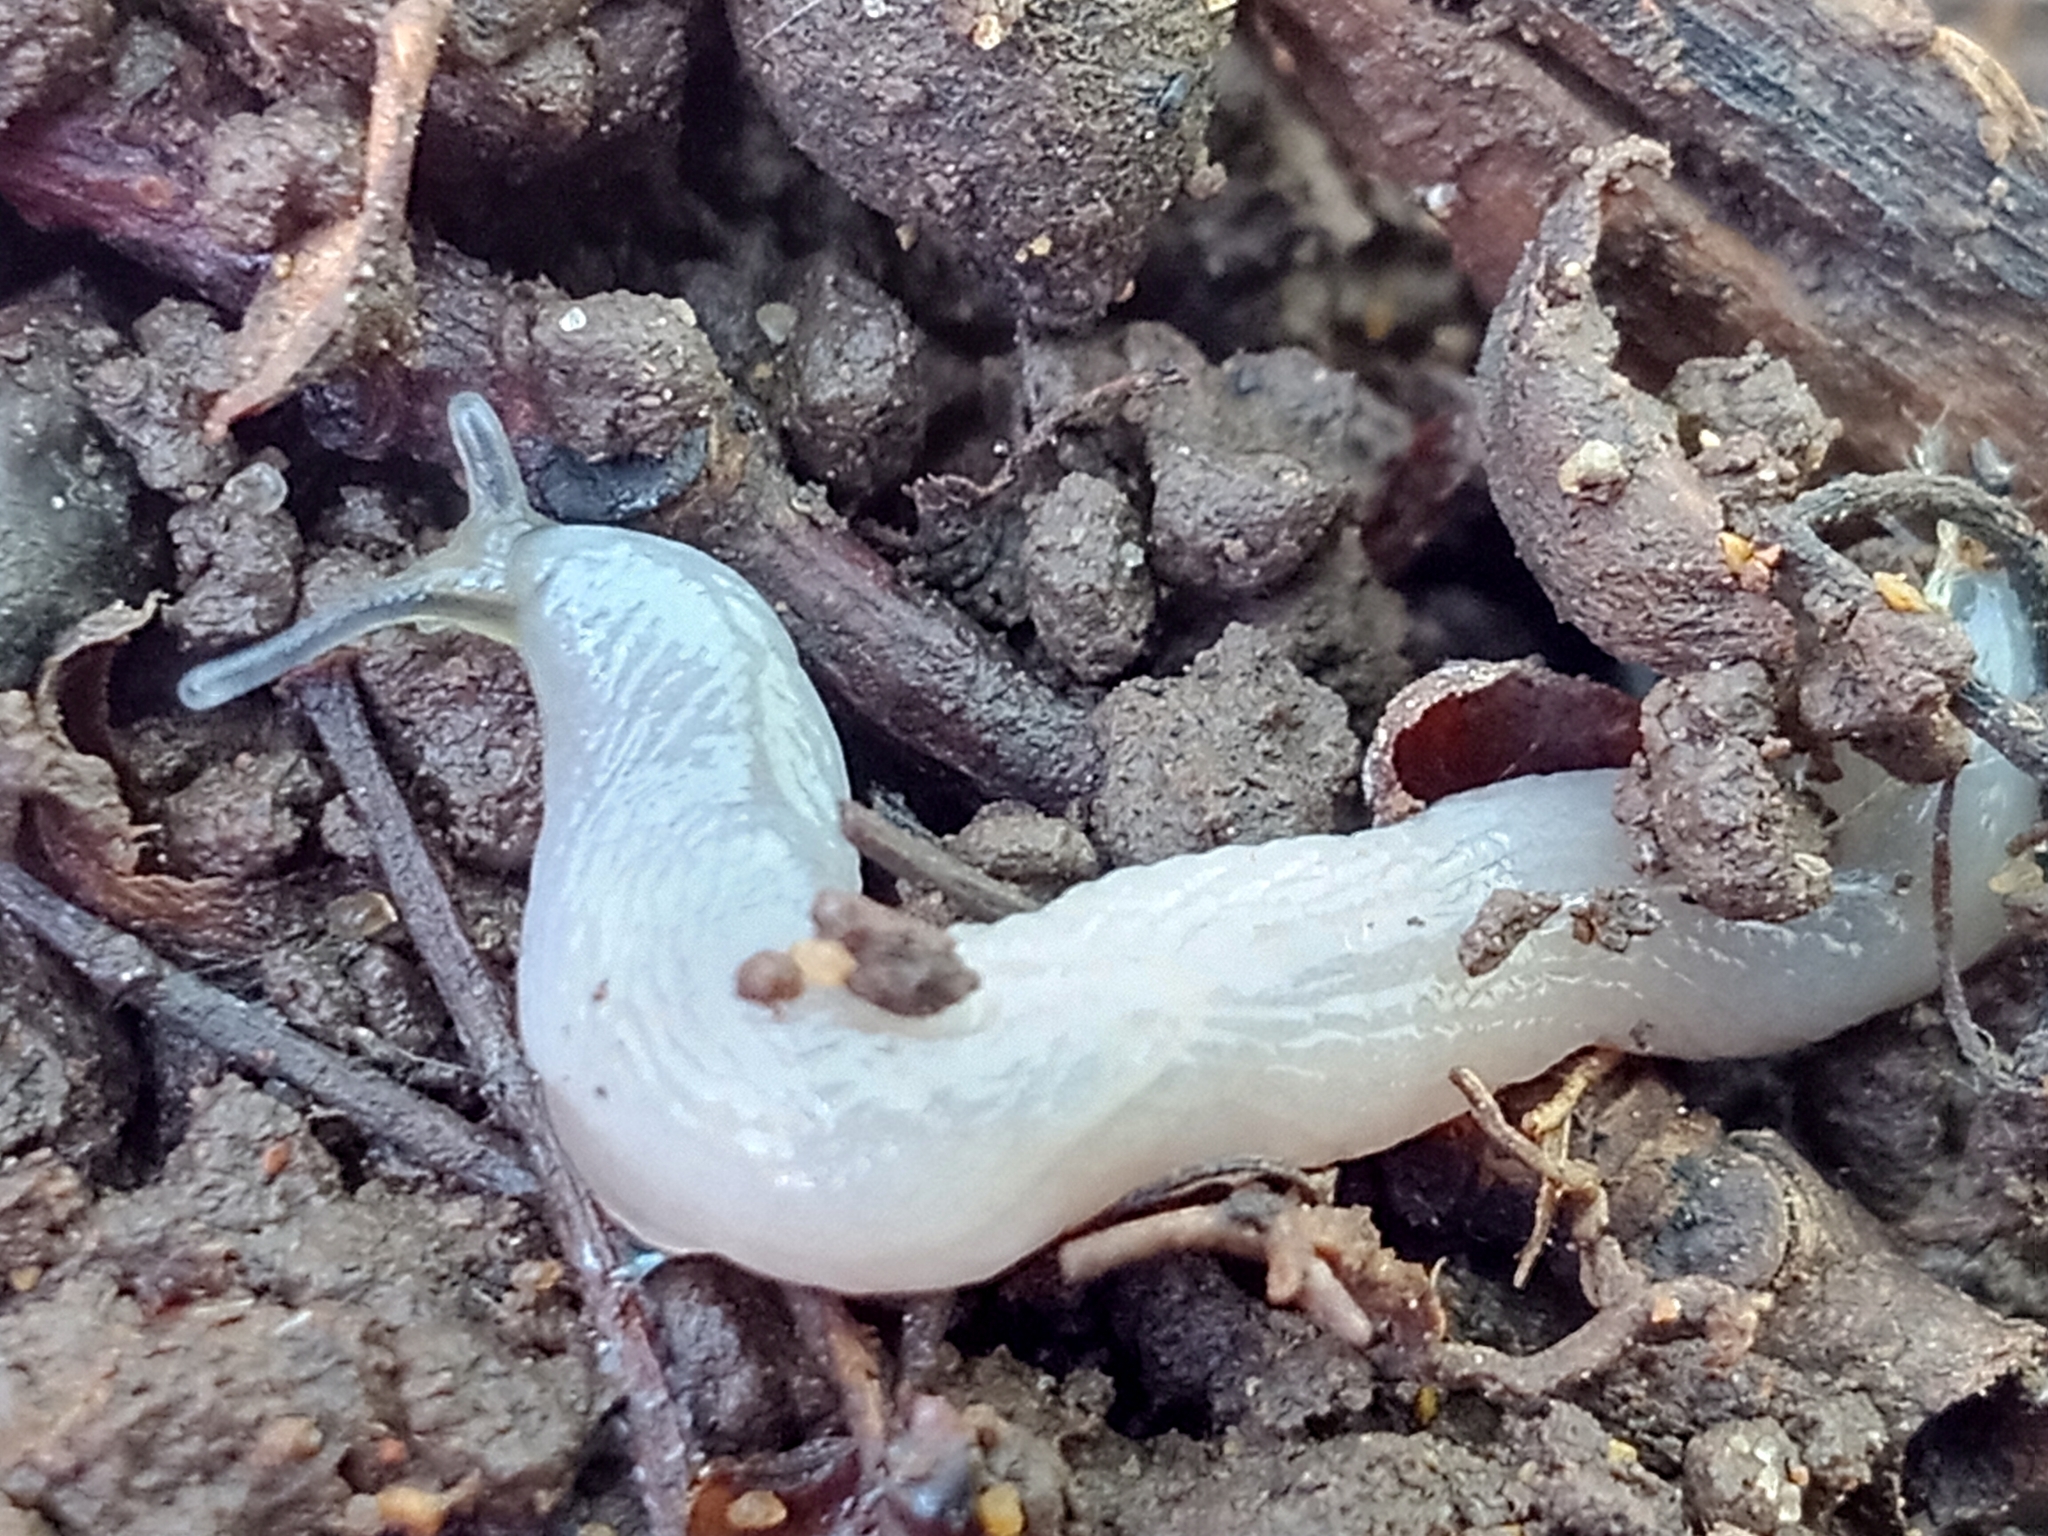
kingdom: Animalia
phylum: Mollusca
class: Gastropoda
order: Stylommatophora
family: Boettgerillidae
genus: Boettgerilla
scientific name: Boettgerilla pallens
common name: Worm slug
